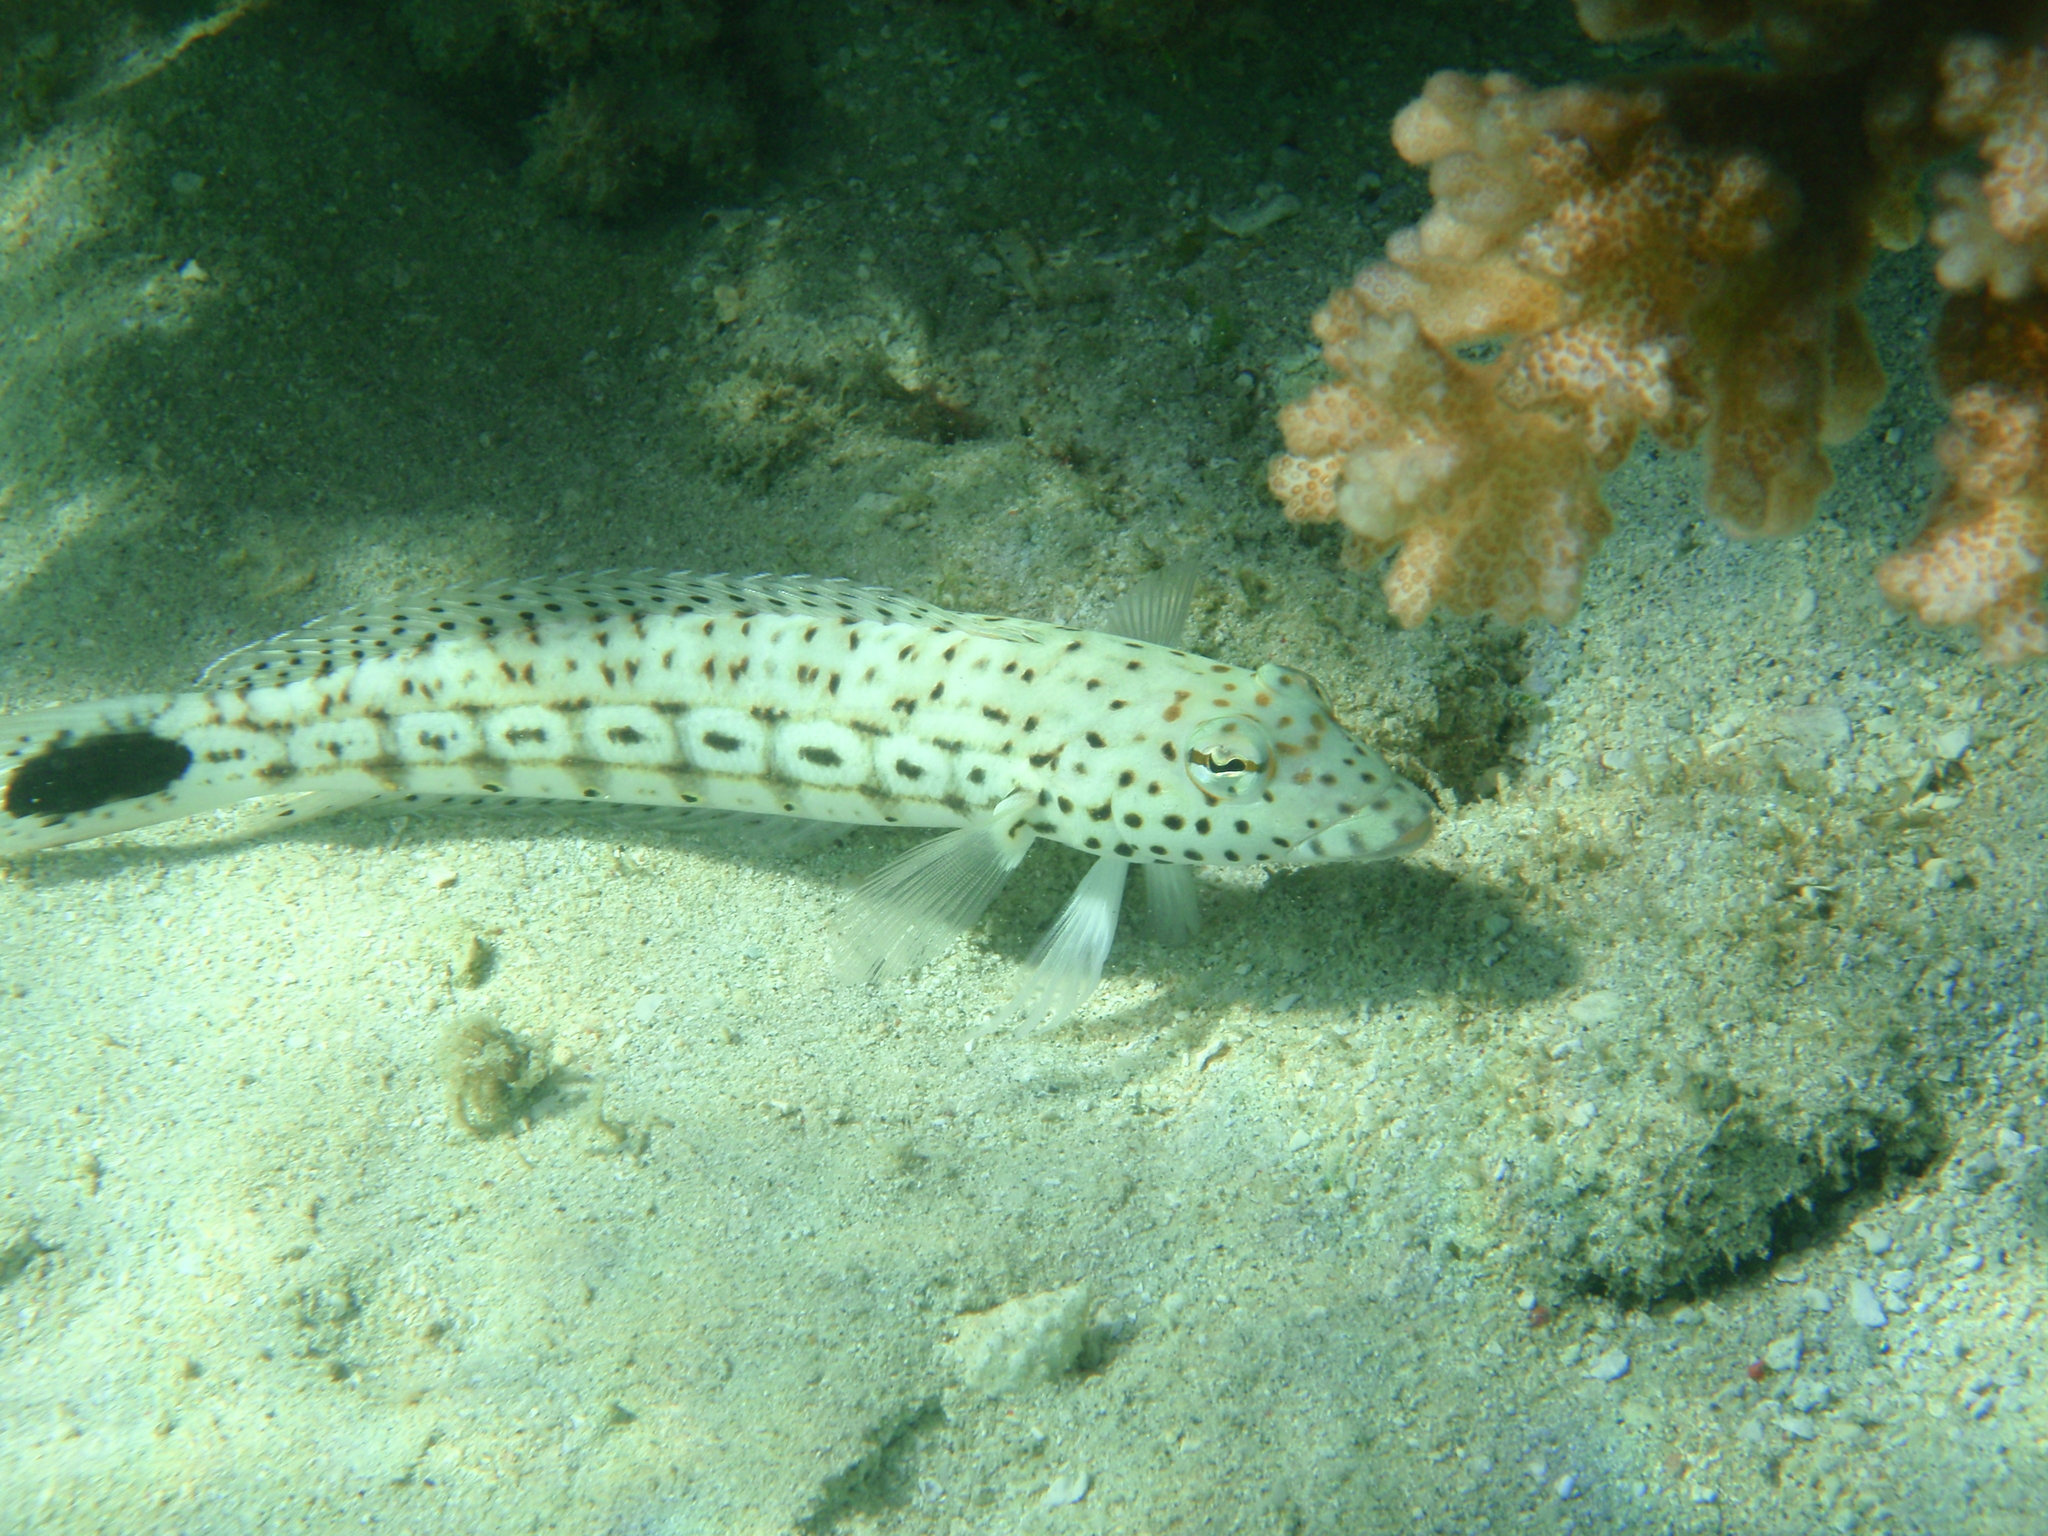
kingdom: Animalia
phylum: Chordata
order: Perciformes
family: Pinguipedidae
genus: Parapercis
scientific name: Parapercis xanthogramma
